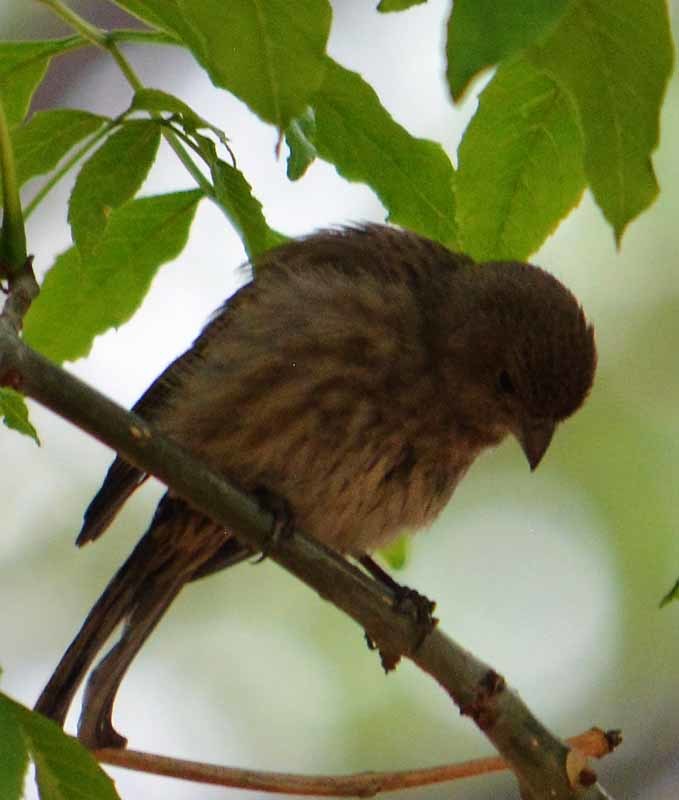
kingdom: Animalia
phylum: Chordata
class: Aves
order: Passeriformes
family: Fringillidae
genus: Haemorhous
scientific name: Haemorhous mexicanus
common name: House finch
